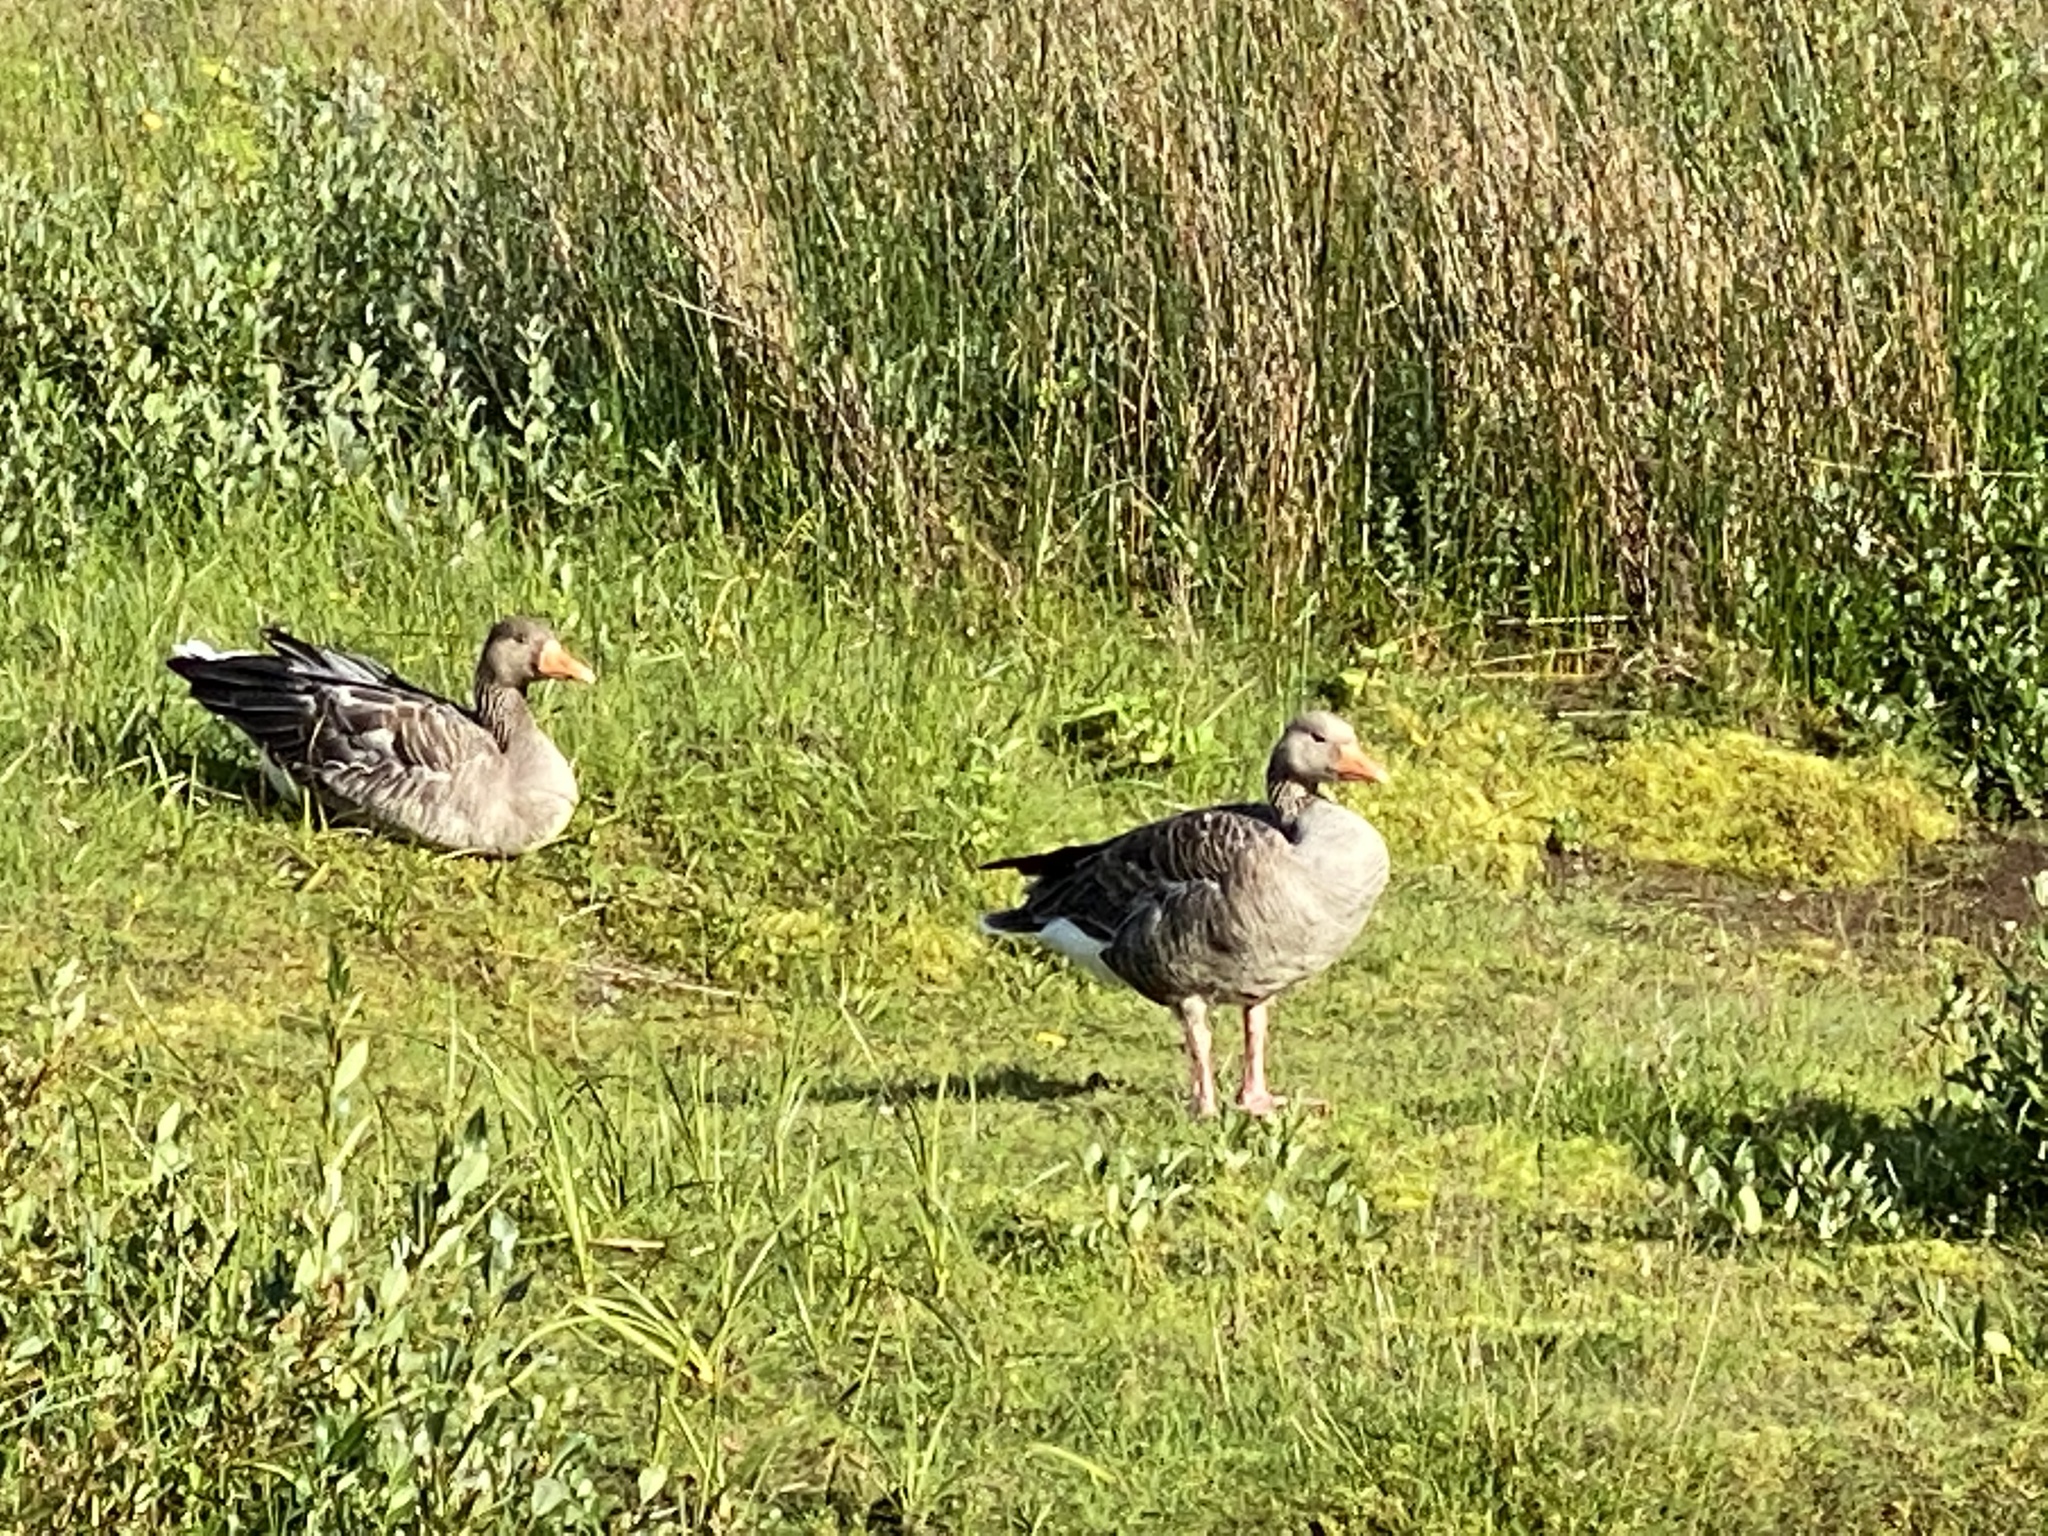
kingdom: Animalia
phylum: Chordata
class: Aves
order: Anseriformes
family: Anatidae
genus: Anser
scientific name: Anser anser
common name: Greylag goose
